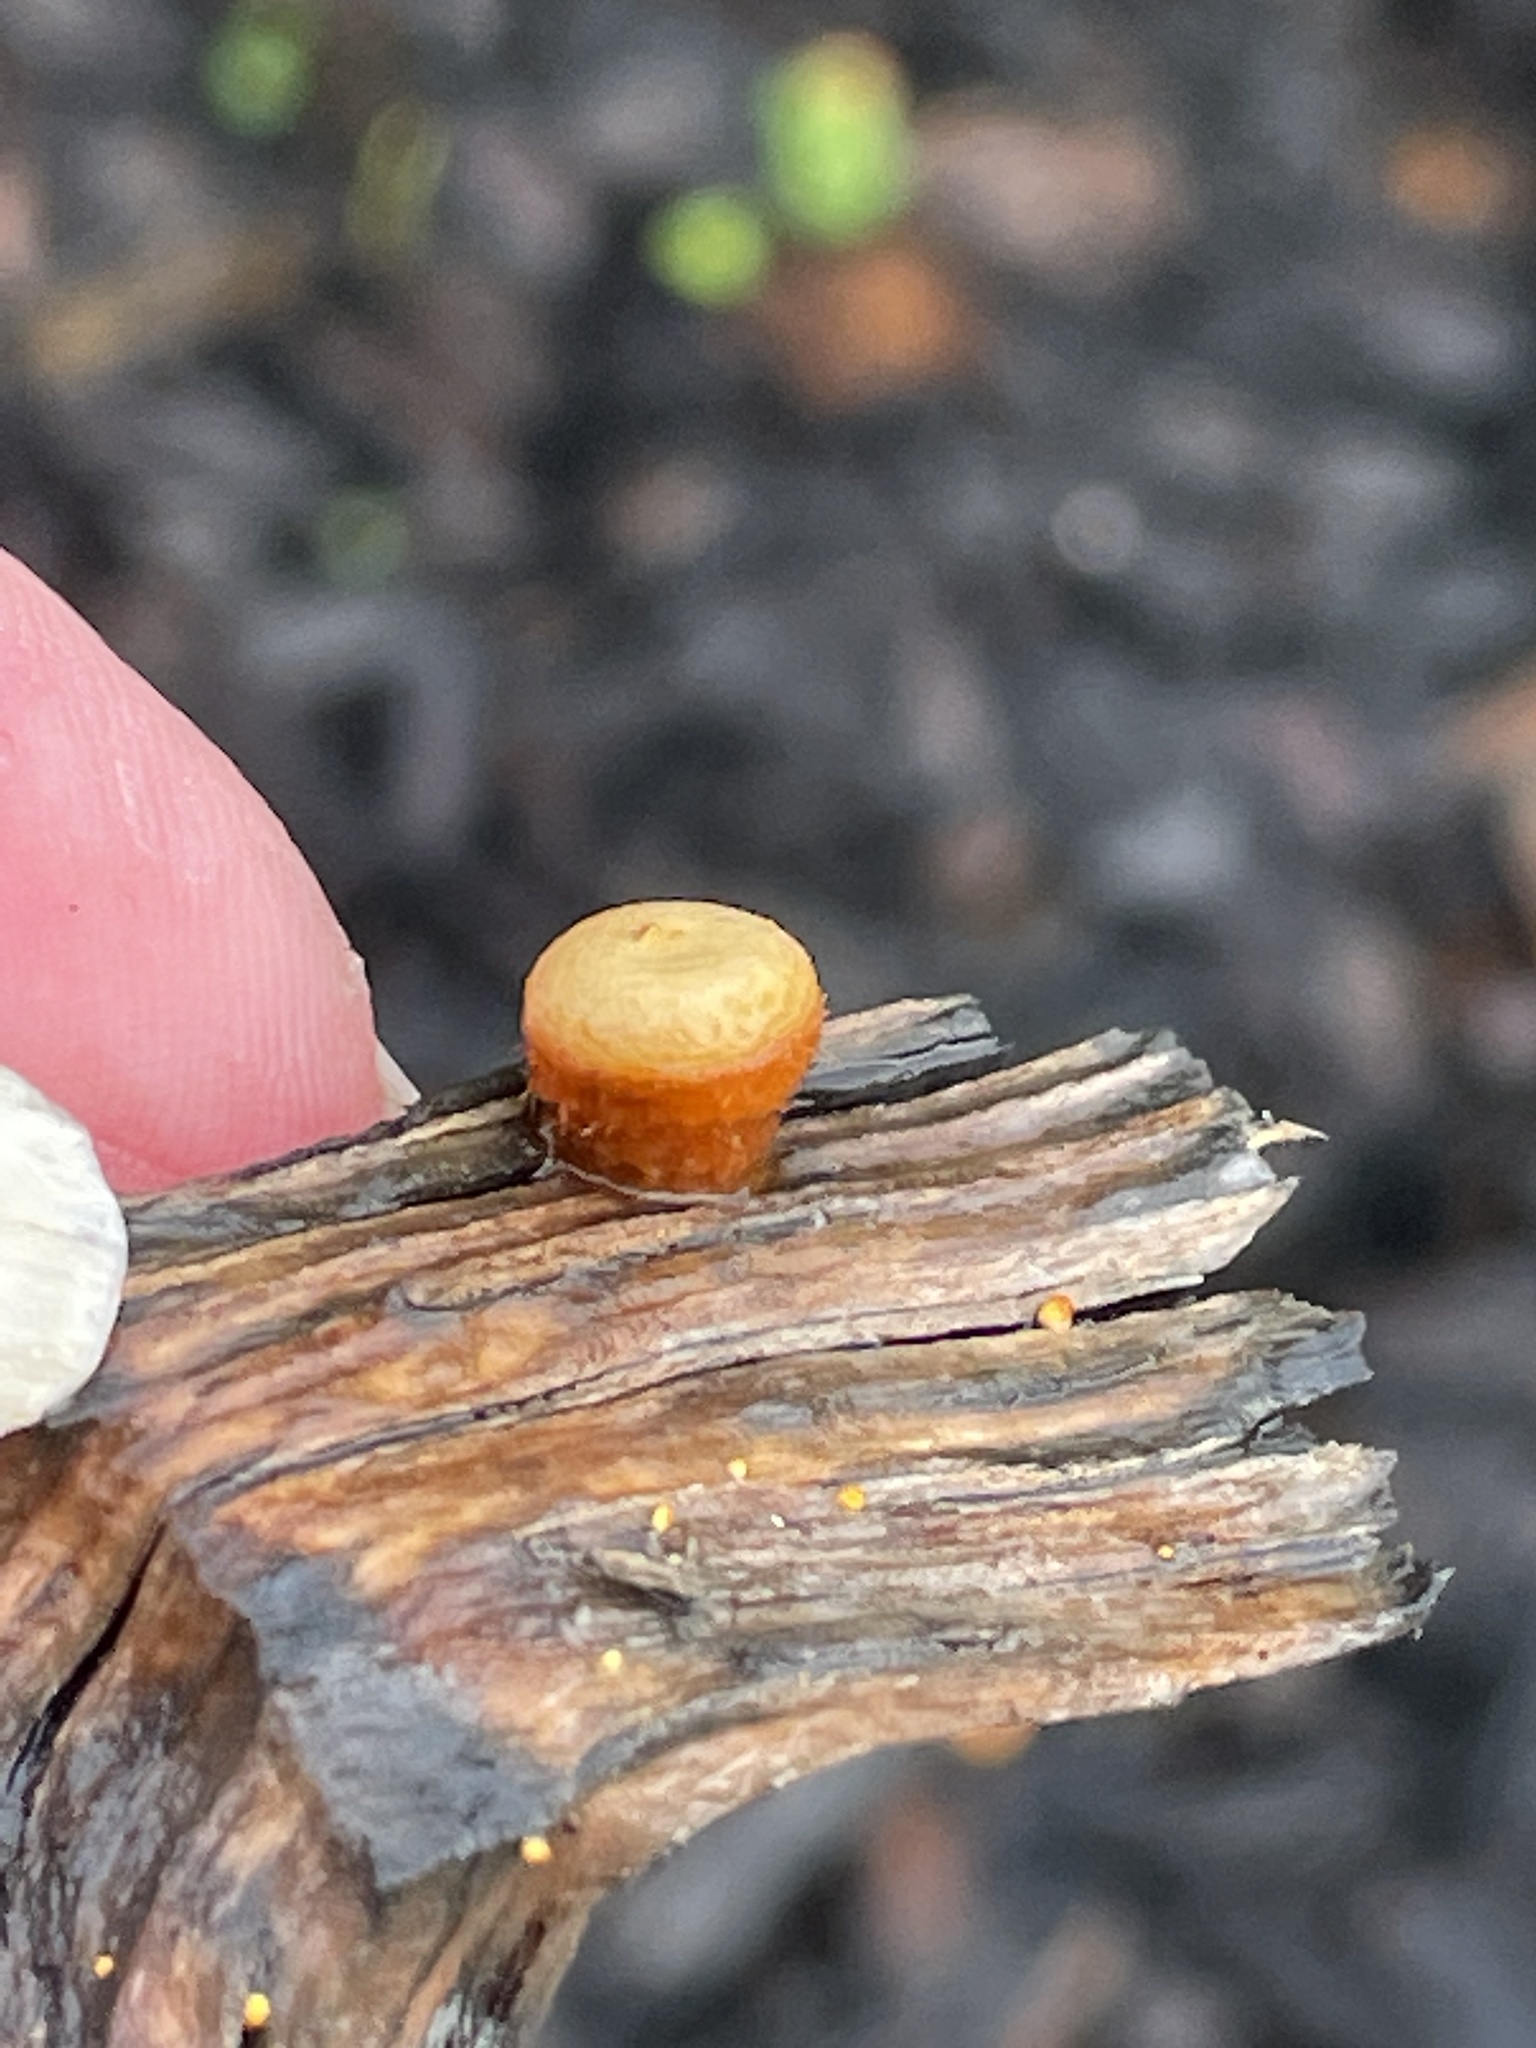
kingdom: Fungi
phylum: Basidiomycota
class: Agaricomycetes
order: Agaricales
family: Nidulariaceae
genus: Crucibulum
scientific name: Crucibulum laeve
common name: Common bird's nest
